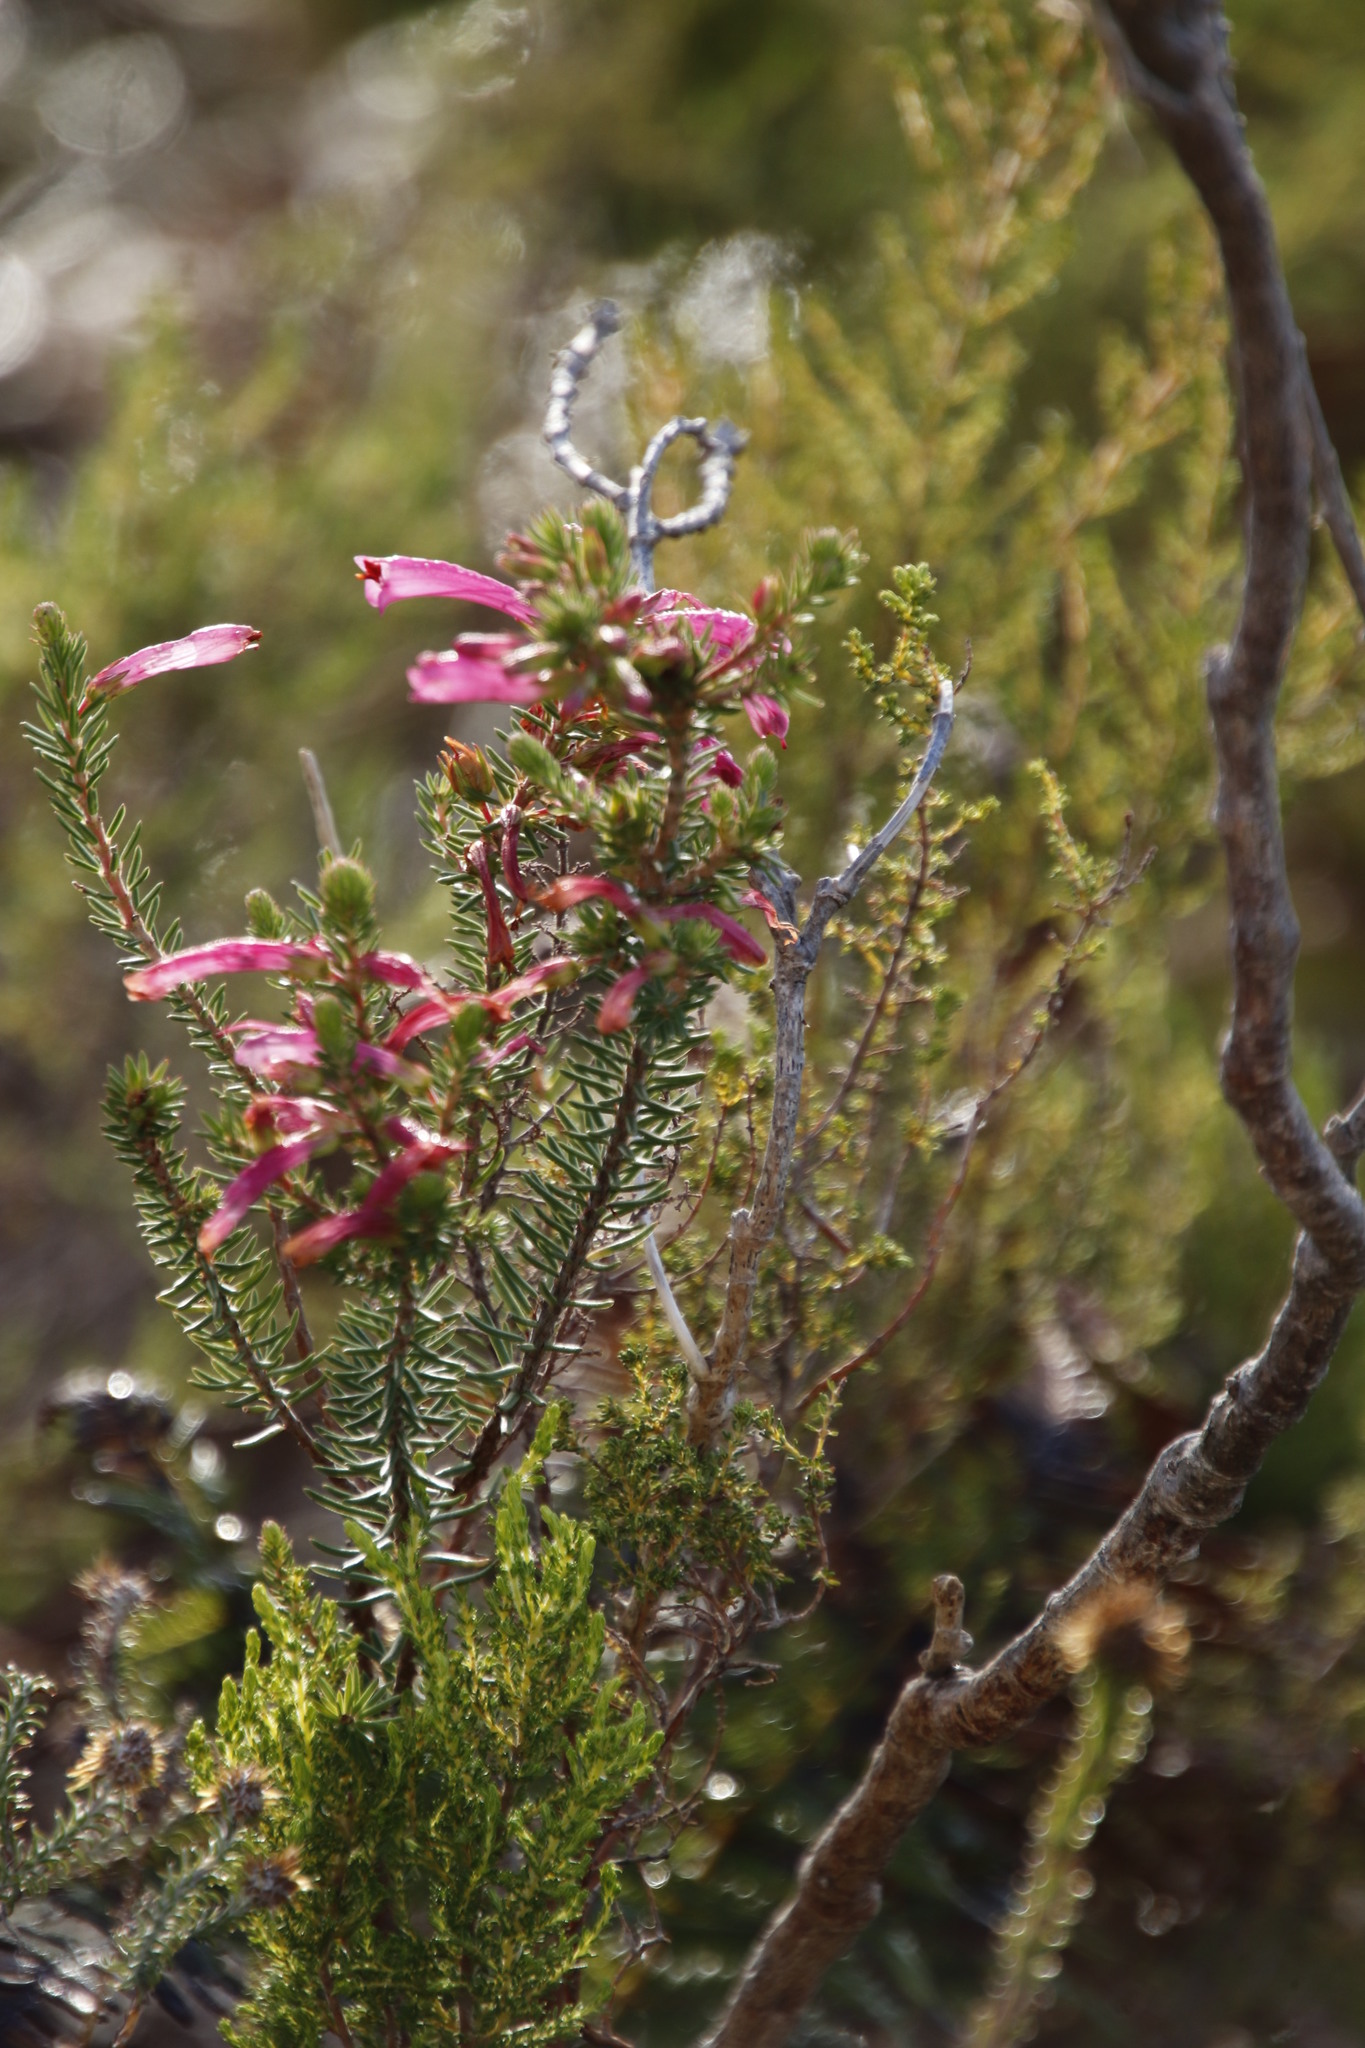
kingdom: Plantae
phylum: Tracheophyta
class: Magnoliopsida
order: Ericales
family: Ericaceae
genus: Erica
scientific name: Erica abietina
